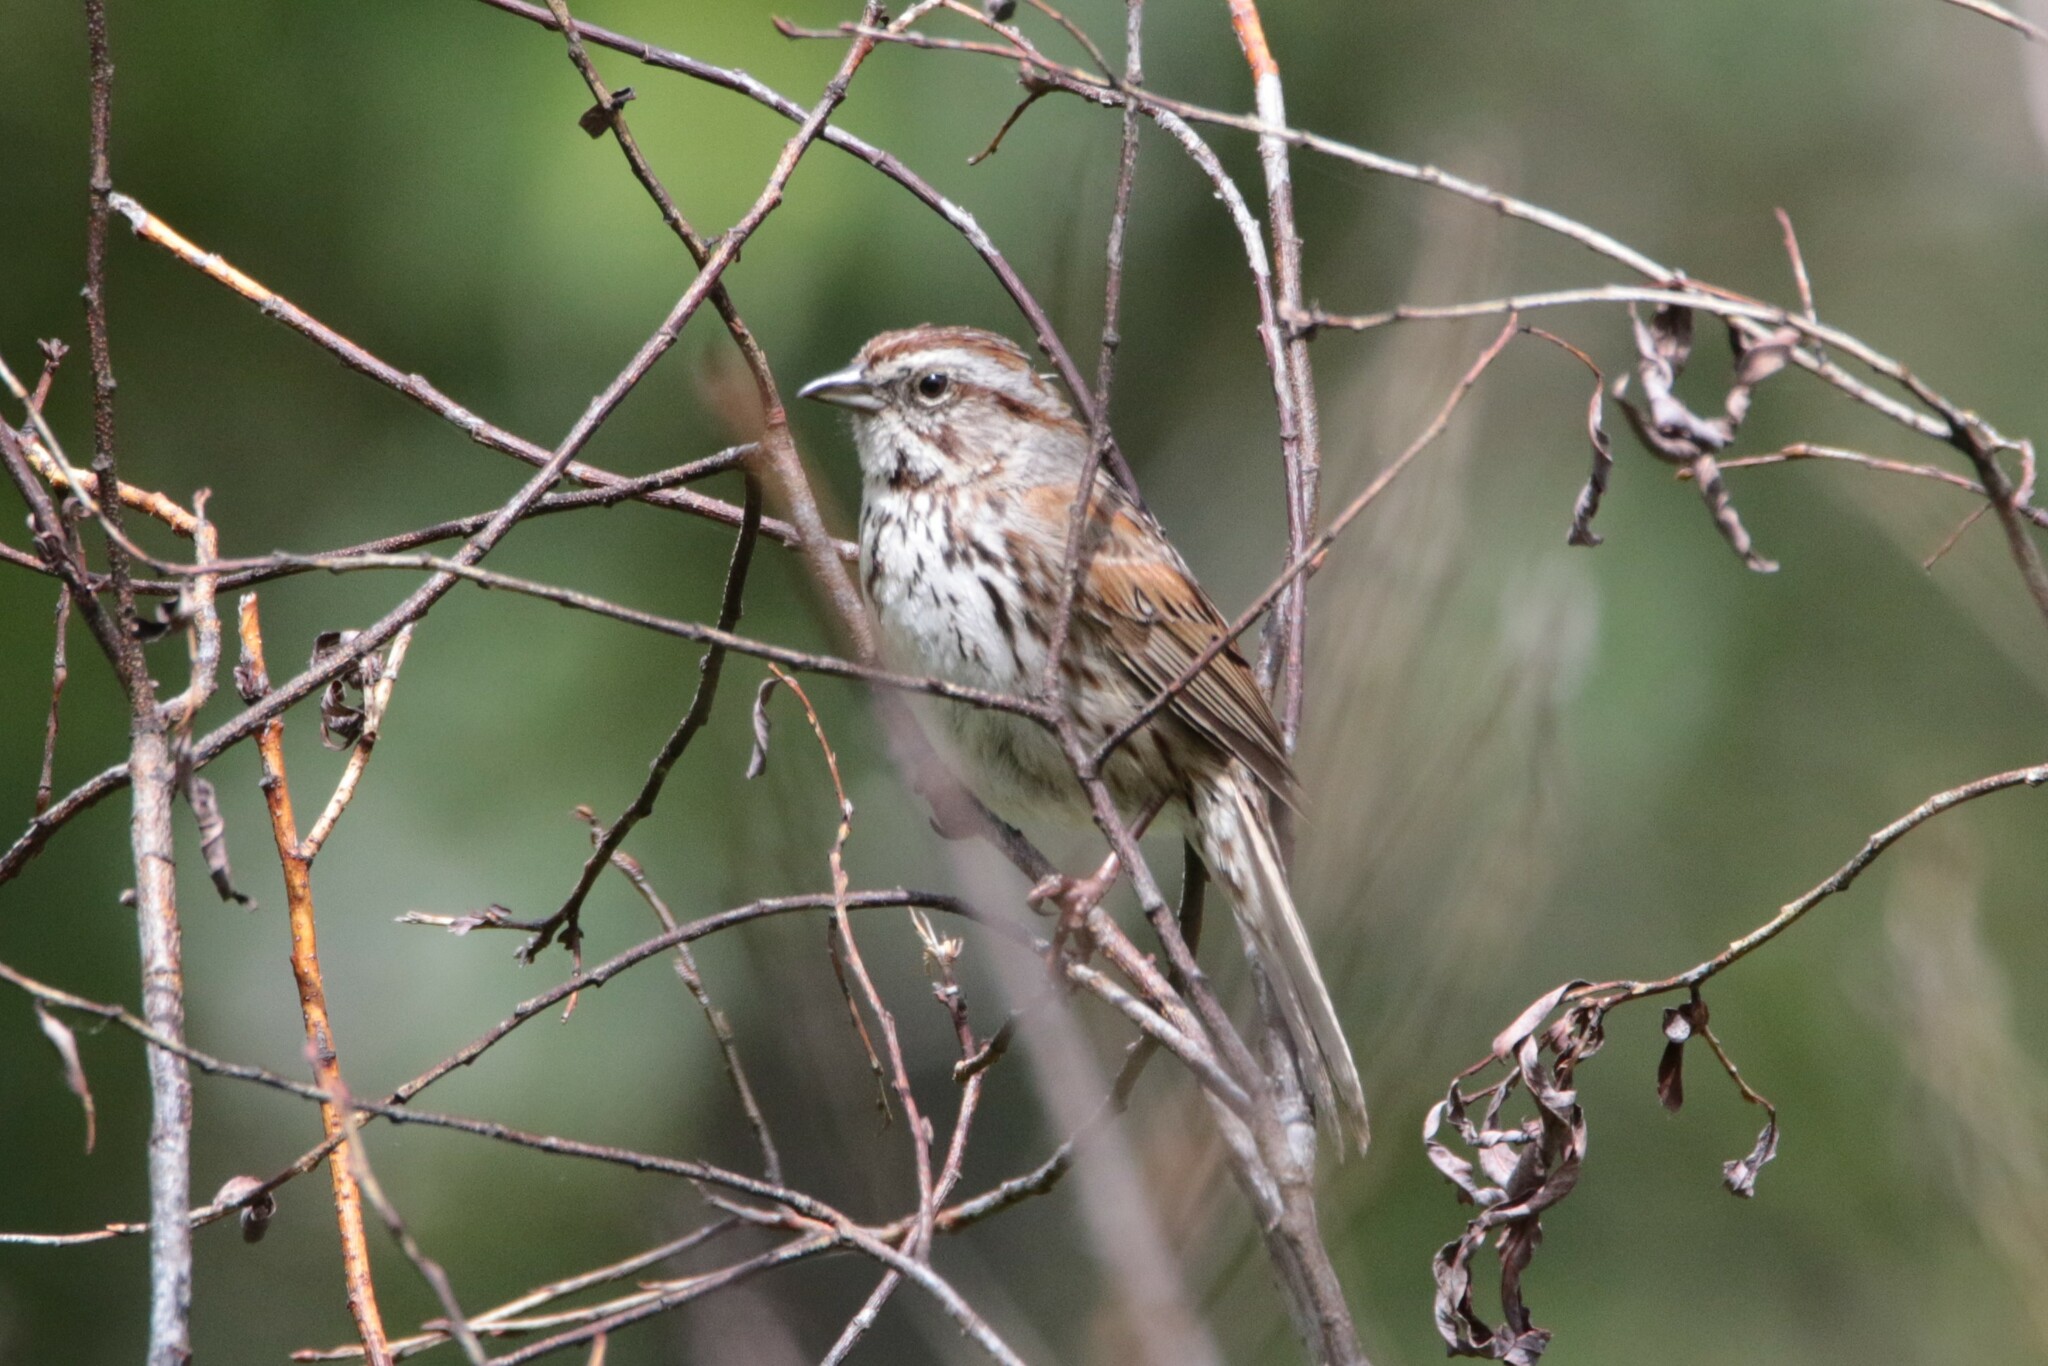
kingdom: Animalia
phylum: Chordata
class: Aves
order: Passeriformes
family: Passerellidae
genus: Melospiza
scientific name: Melospiza melodia
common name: Song sparrow
